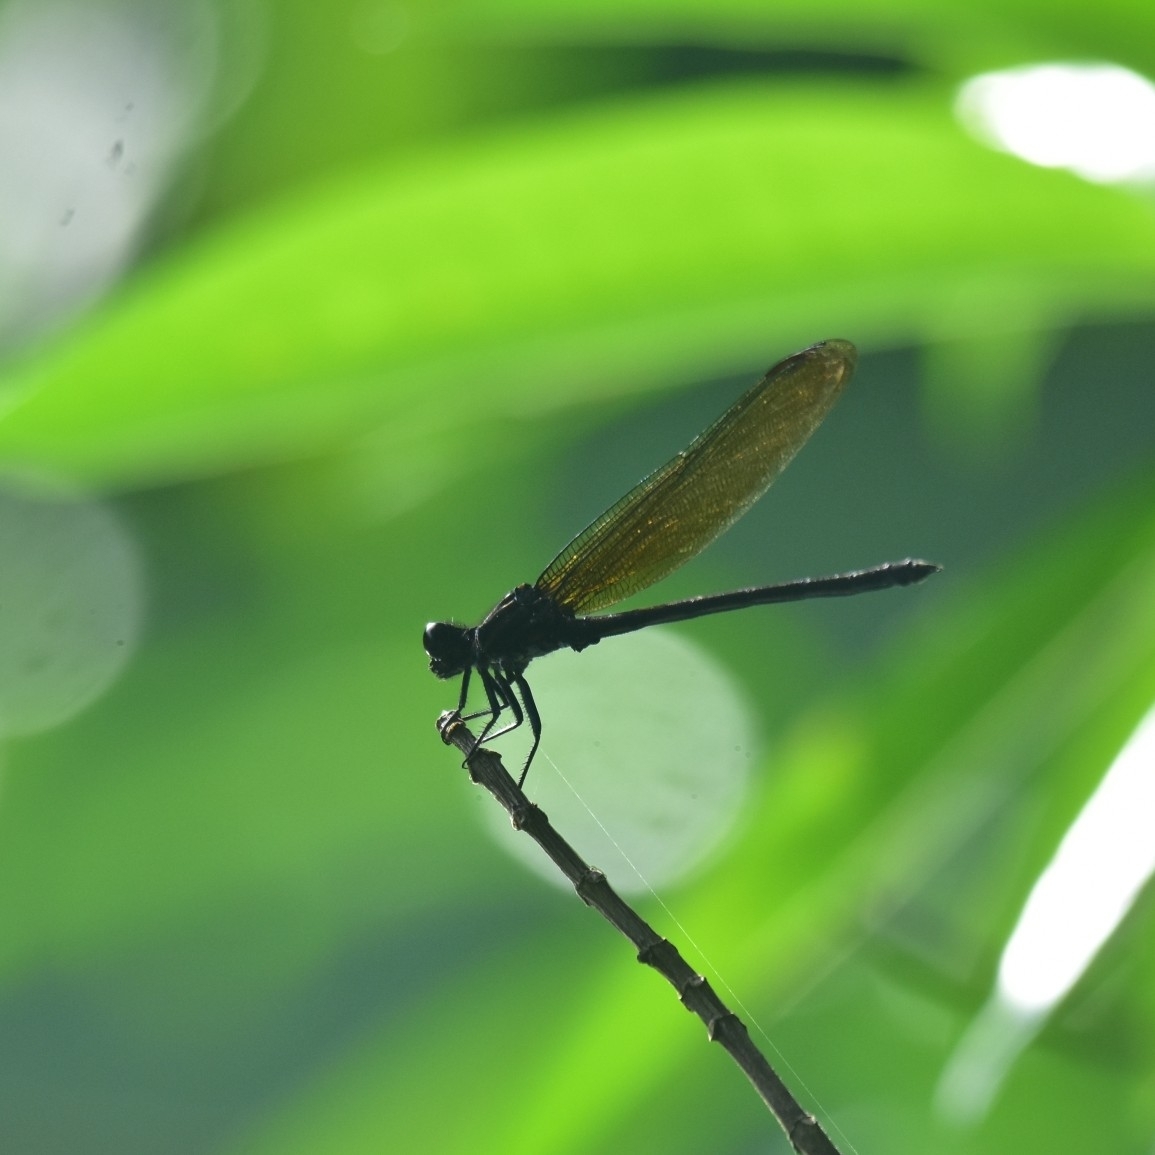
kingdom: Animalia
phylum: Arthropoda
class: Insecta
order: Odonata
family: Euphaeidae
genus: Dysphaea
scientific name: Dysphaea ethela
